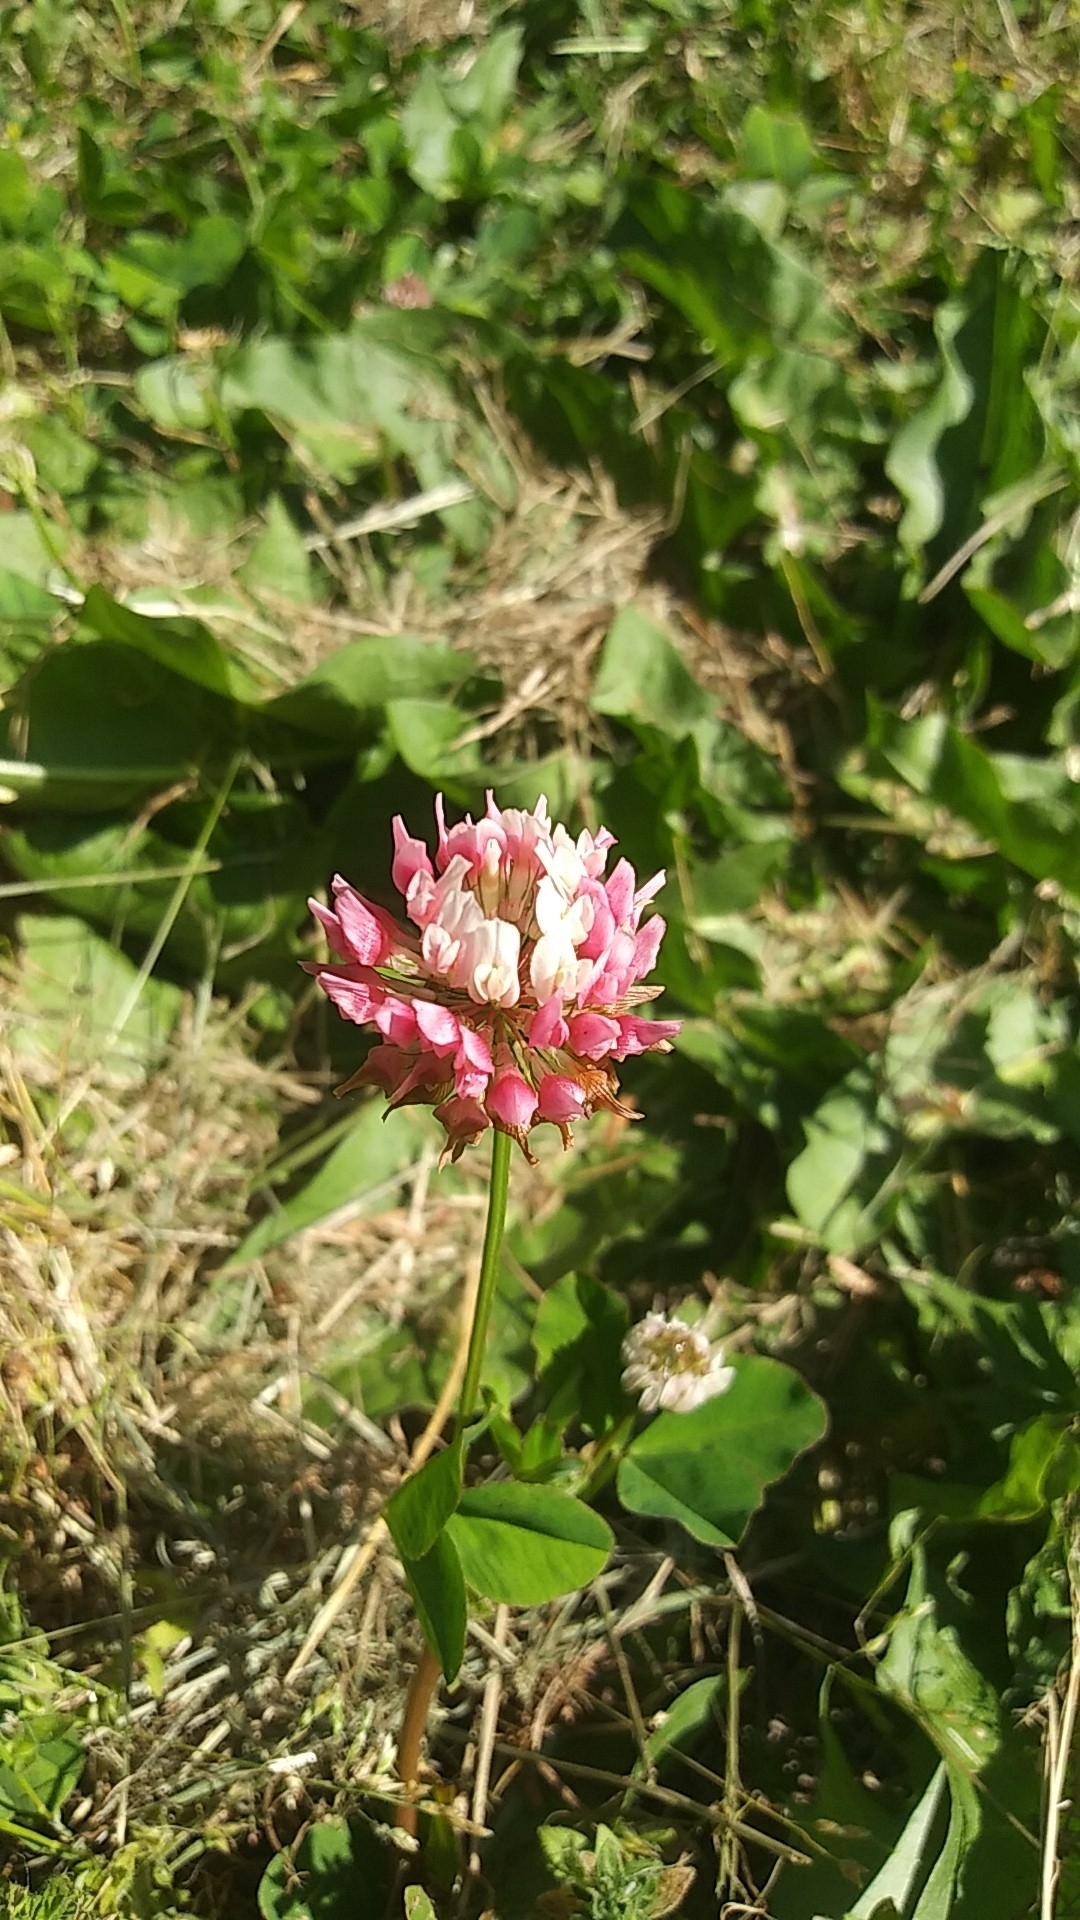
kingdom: Plantae
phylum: Tracheophyta
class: Magnoliopsida
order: Fabales
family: Fabaceae
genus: Trifolium
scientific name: Trifolium hybridum
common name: Alsike clover
